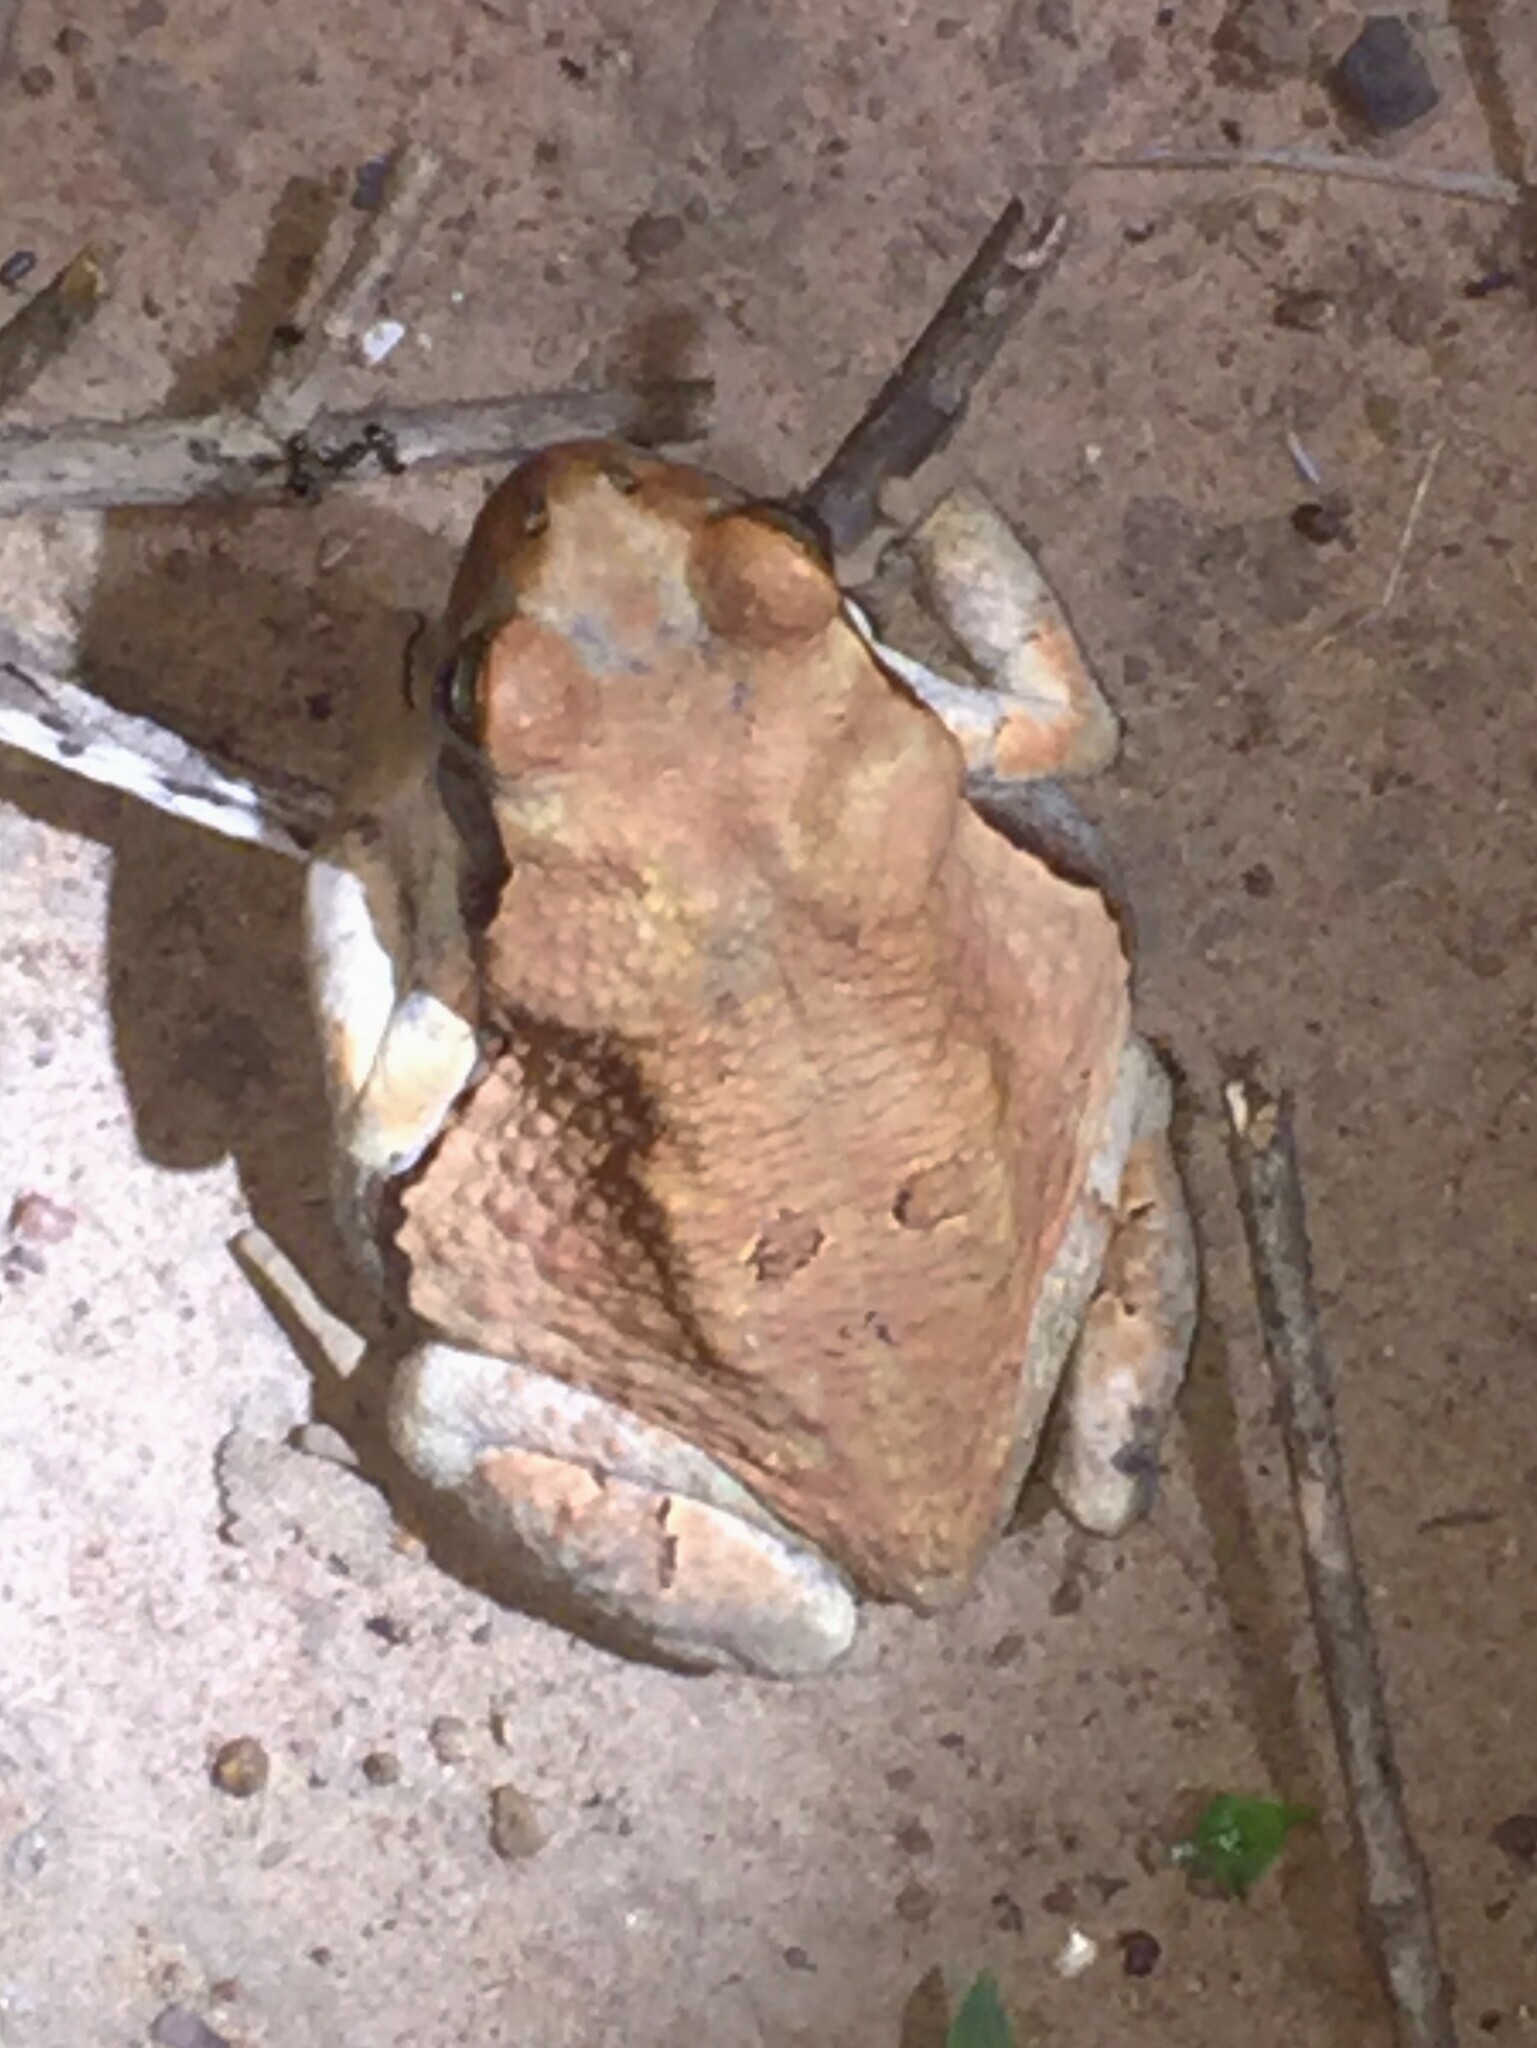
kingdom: Animalia
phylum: Chordata
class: Amphibia
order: Anura
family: Bufonidae
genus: Schismaderma
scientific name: Schismaderma carens
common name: African split-skin toad
